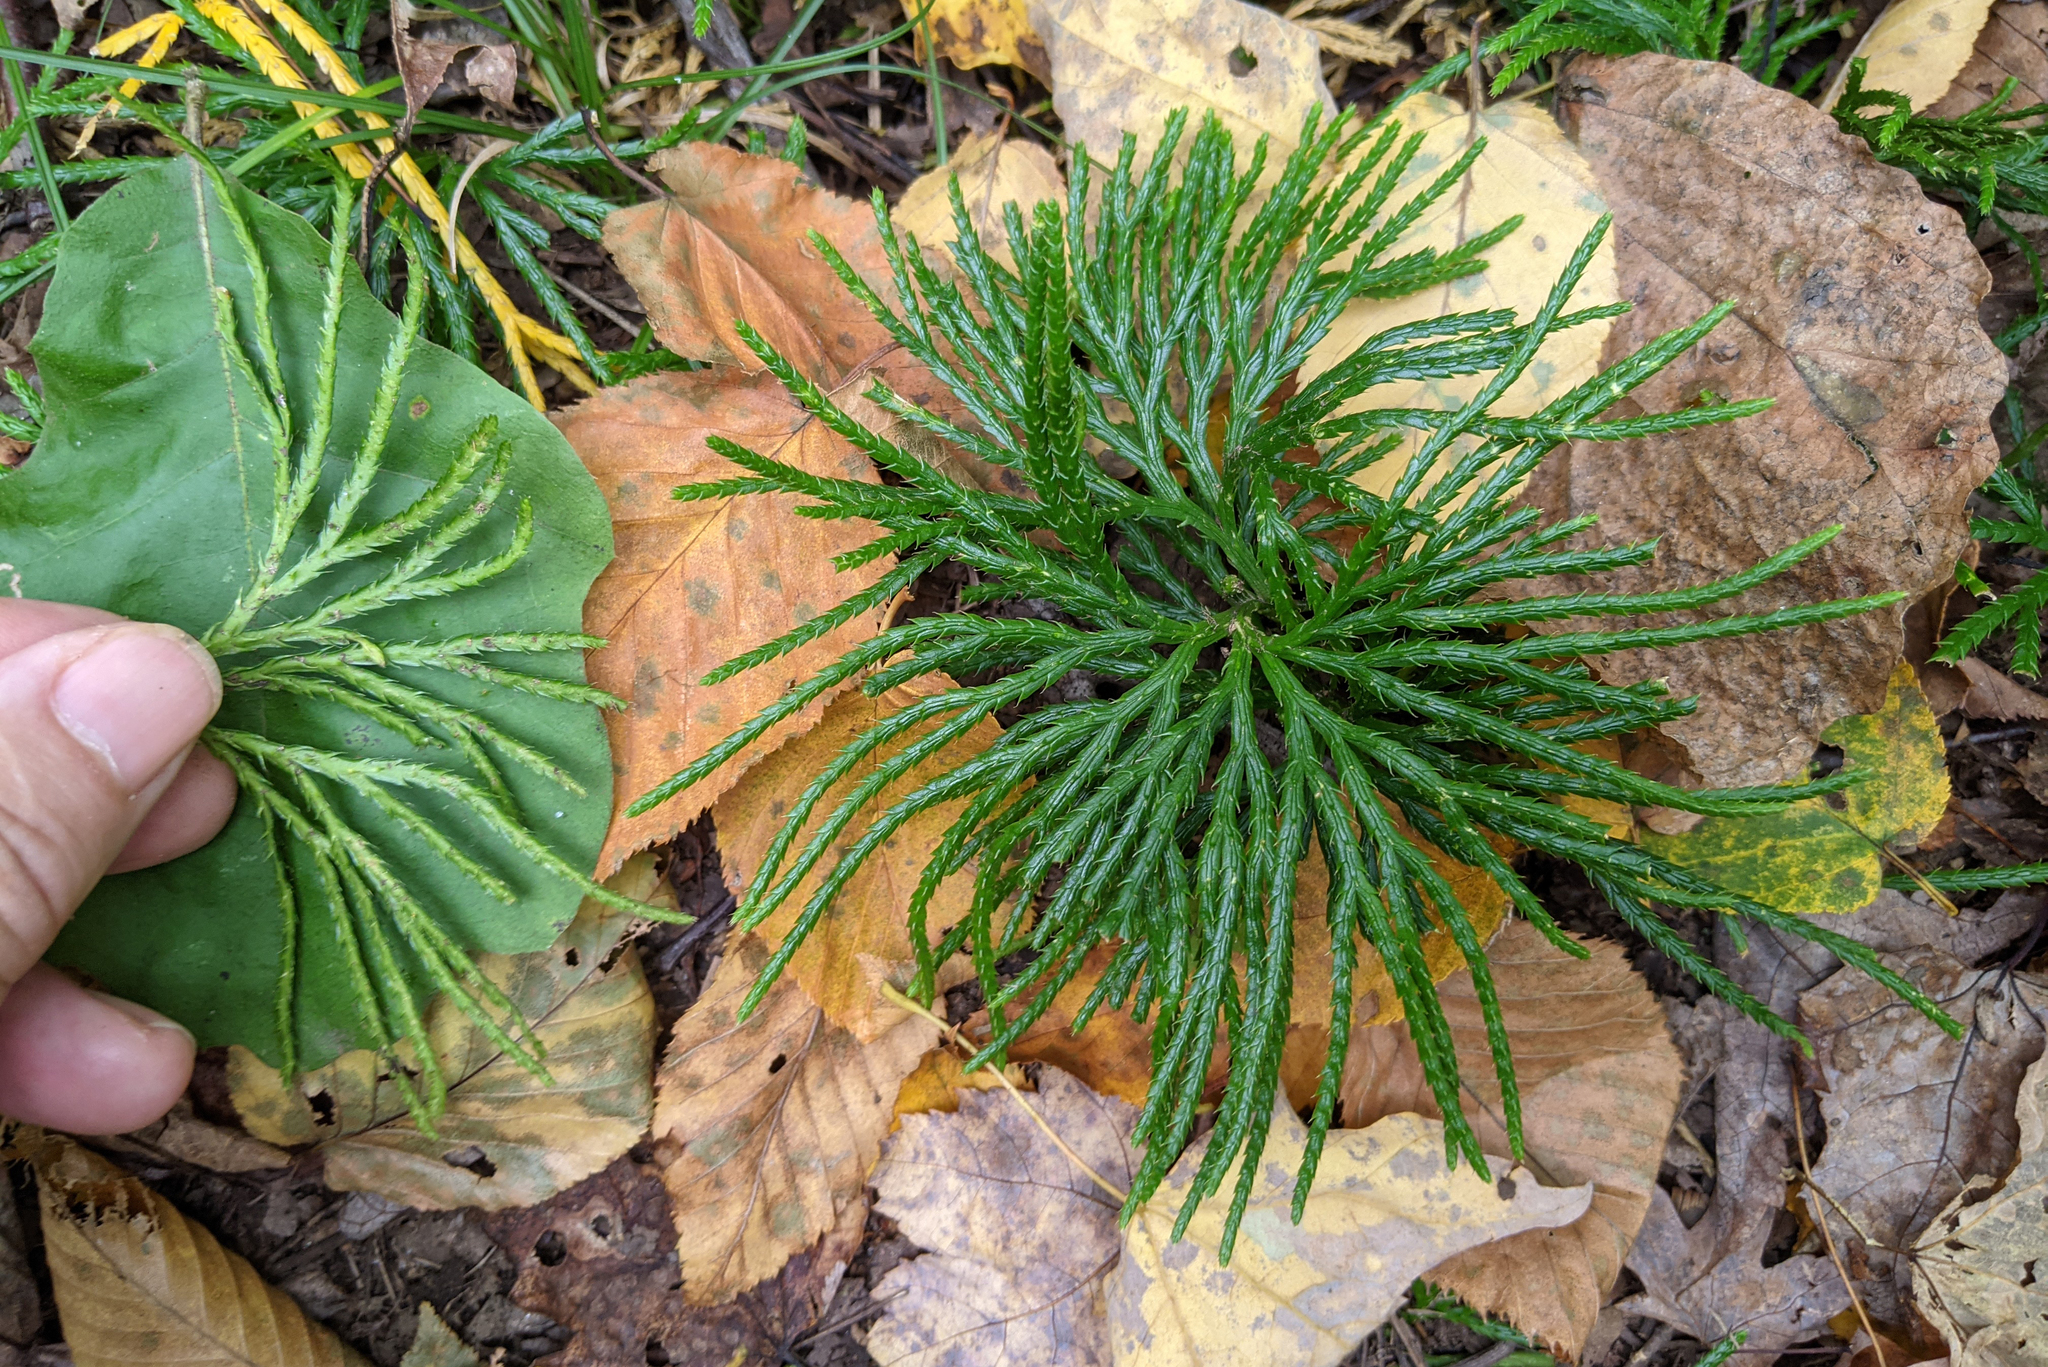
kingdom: Plantae
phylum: Tracheophyta
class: Lycopodiopsida
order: Lycopodiales
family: Lycopodiaceae
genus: Diphasiastrum
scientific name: Diphasiastrum digitatum
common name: Southern running-pine
